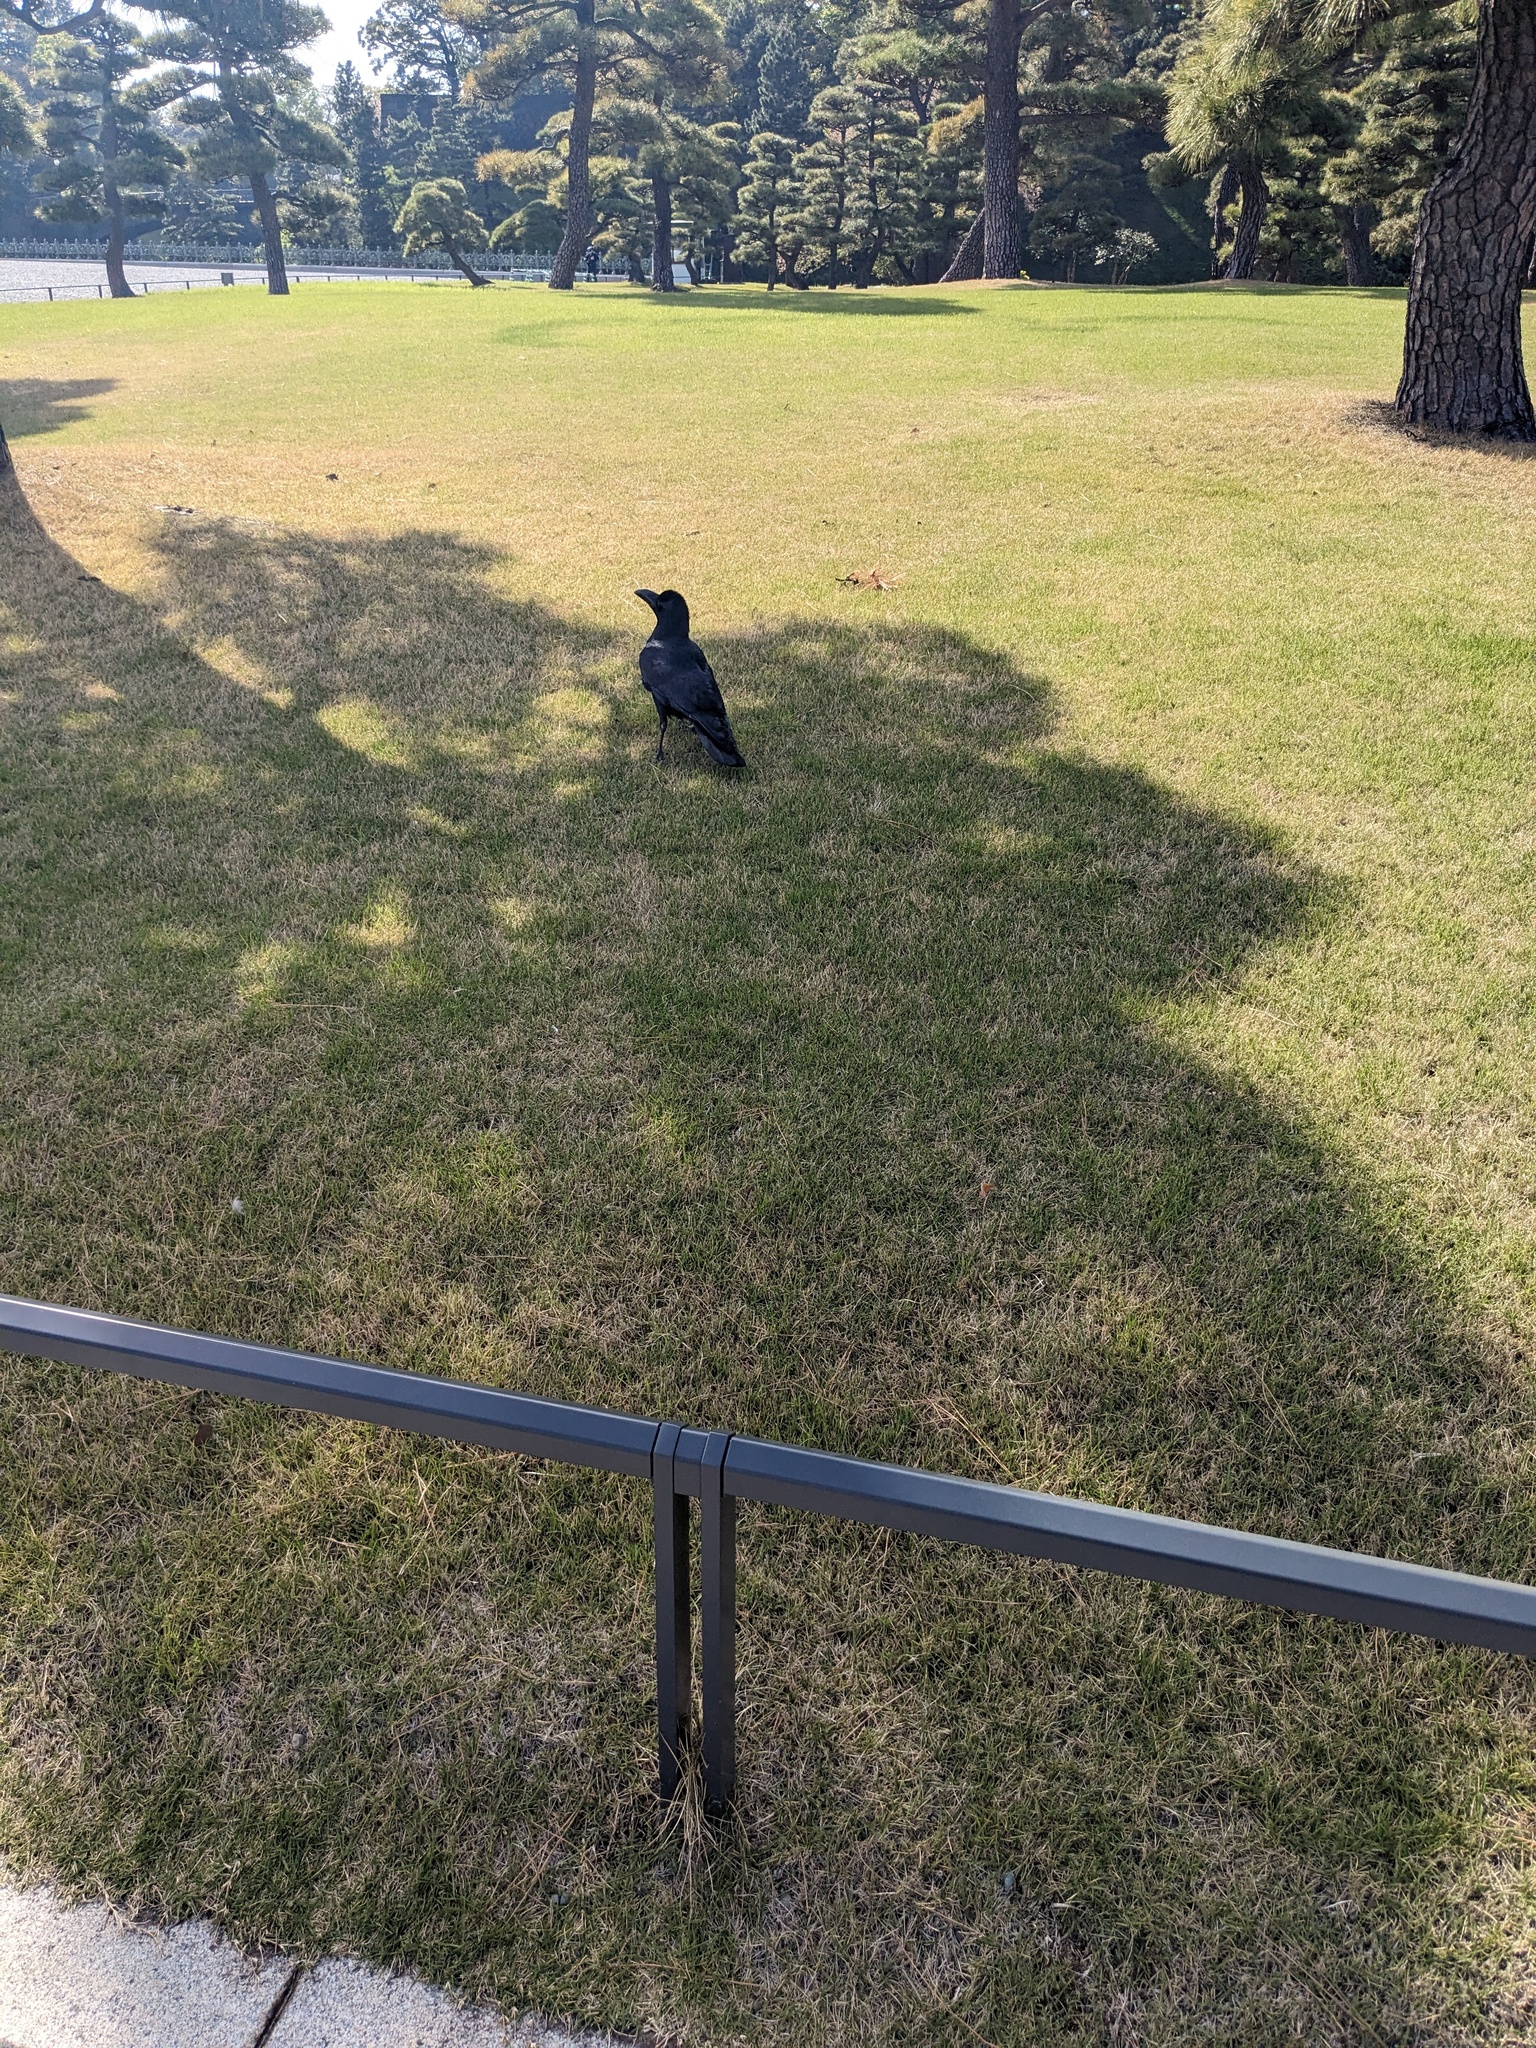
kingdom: Animalia
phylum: Chordata
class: Aves
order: Passeriformes
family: Corvidae
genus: Corvus
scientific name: Corvus macrorhynchos
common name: Large-billed crow
